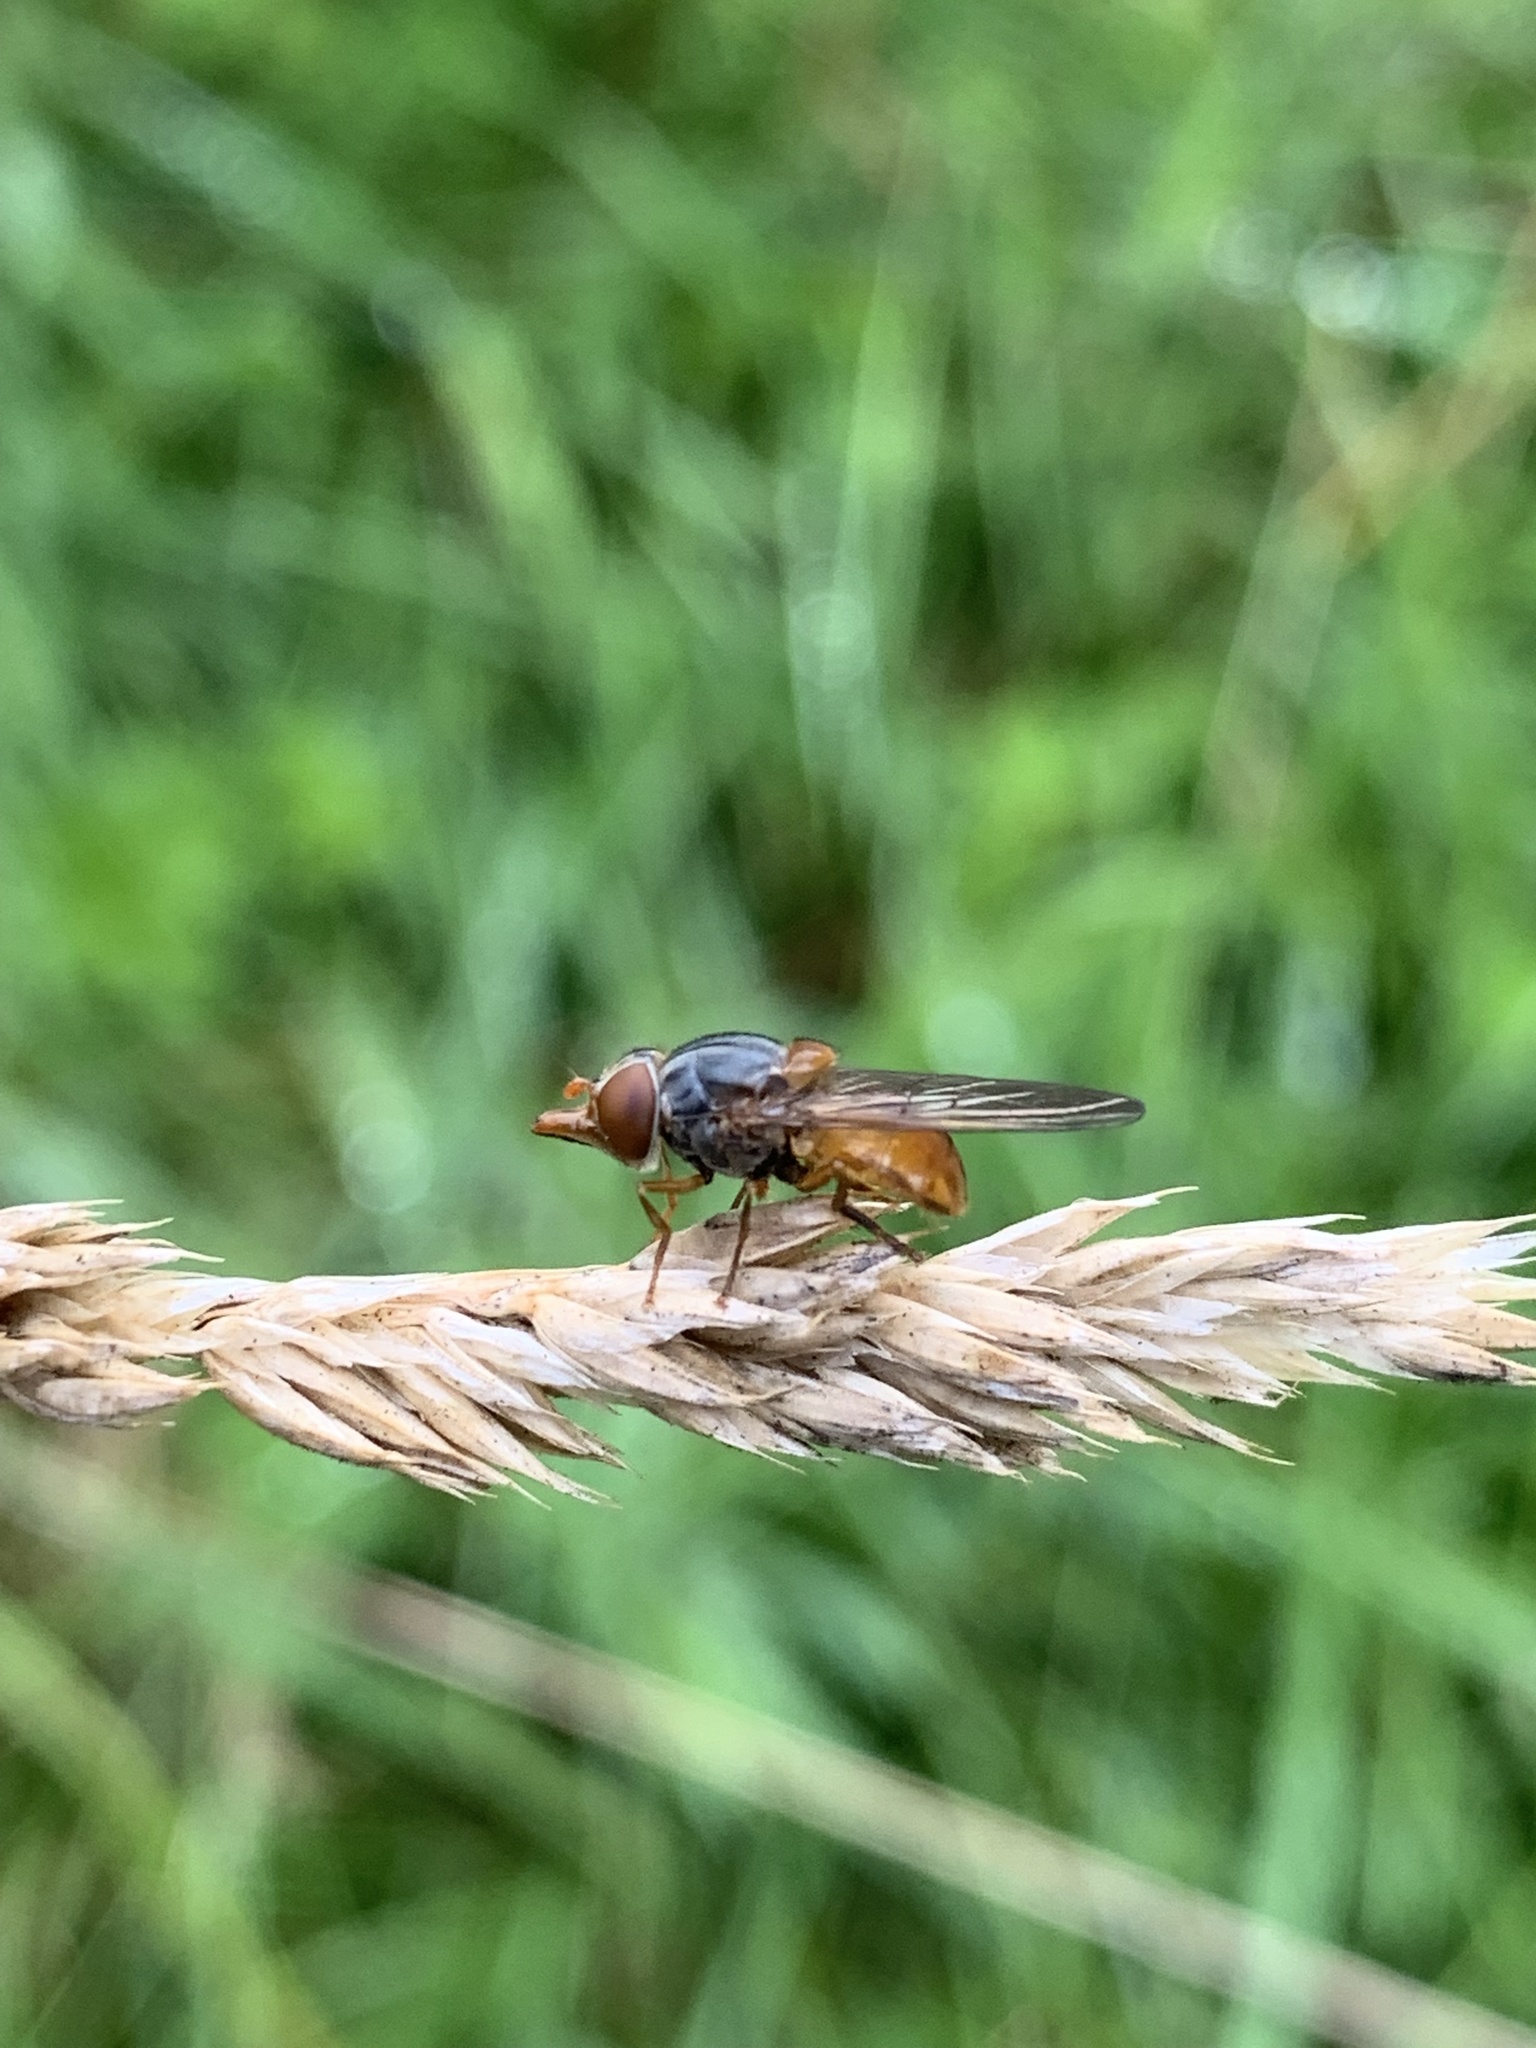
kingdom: Animalia
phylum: Arthropoda
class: Insecta
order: Diptera
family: Syrphidae
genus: Rhingia
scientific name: Rhingia campestris
